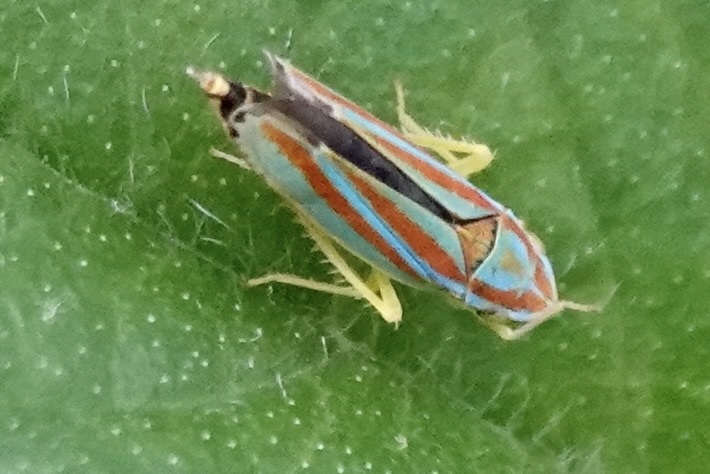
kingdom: Animalia
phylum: Arthropoda
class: Insecta
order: Hemiptera
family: Cicadellidae
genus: Graphocephala
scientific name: Graphocephala versuta
